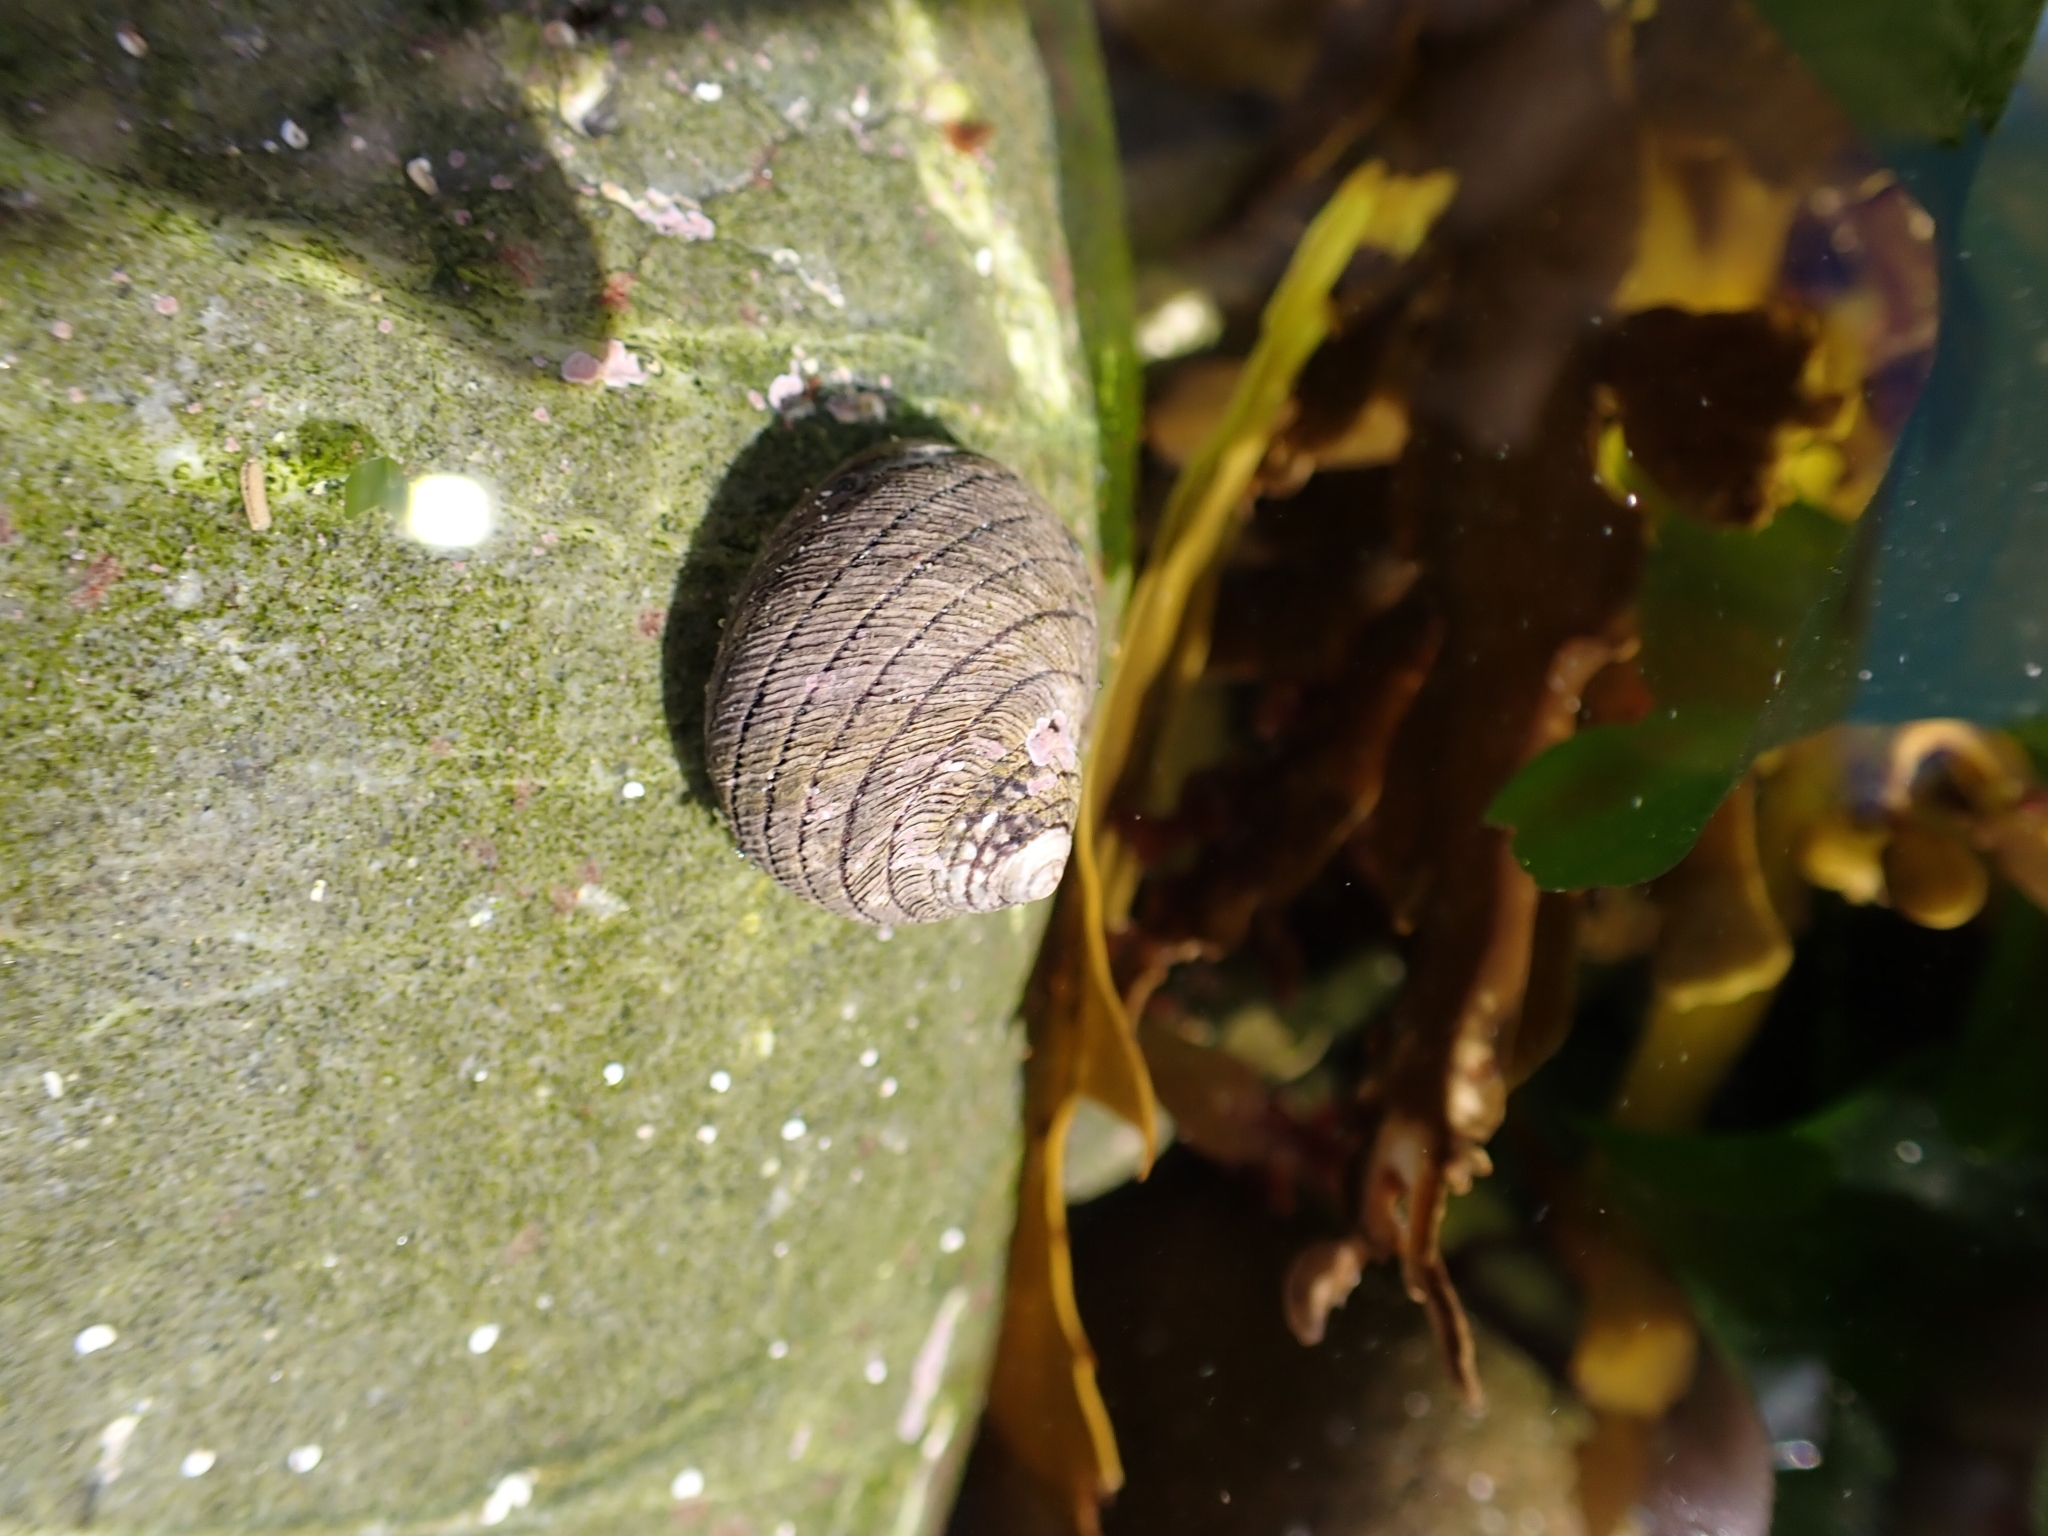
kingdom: Animalia
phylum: Mollusca
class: Gastropoda
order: Trochida
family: Trochidae
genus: Diloma
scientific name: Diloma aethiops
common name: Scorched monodont
